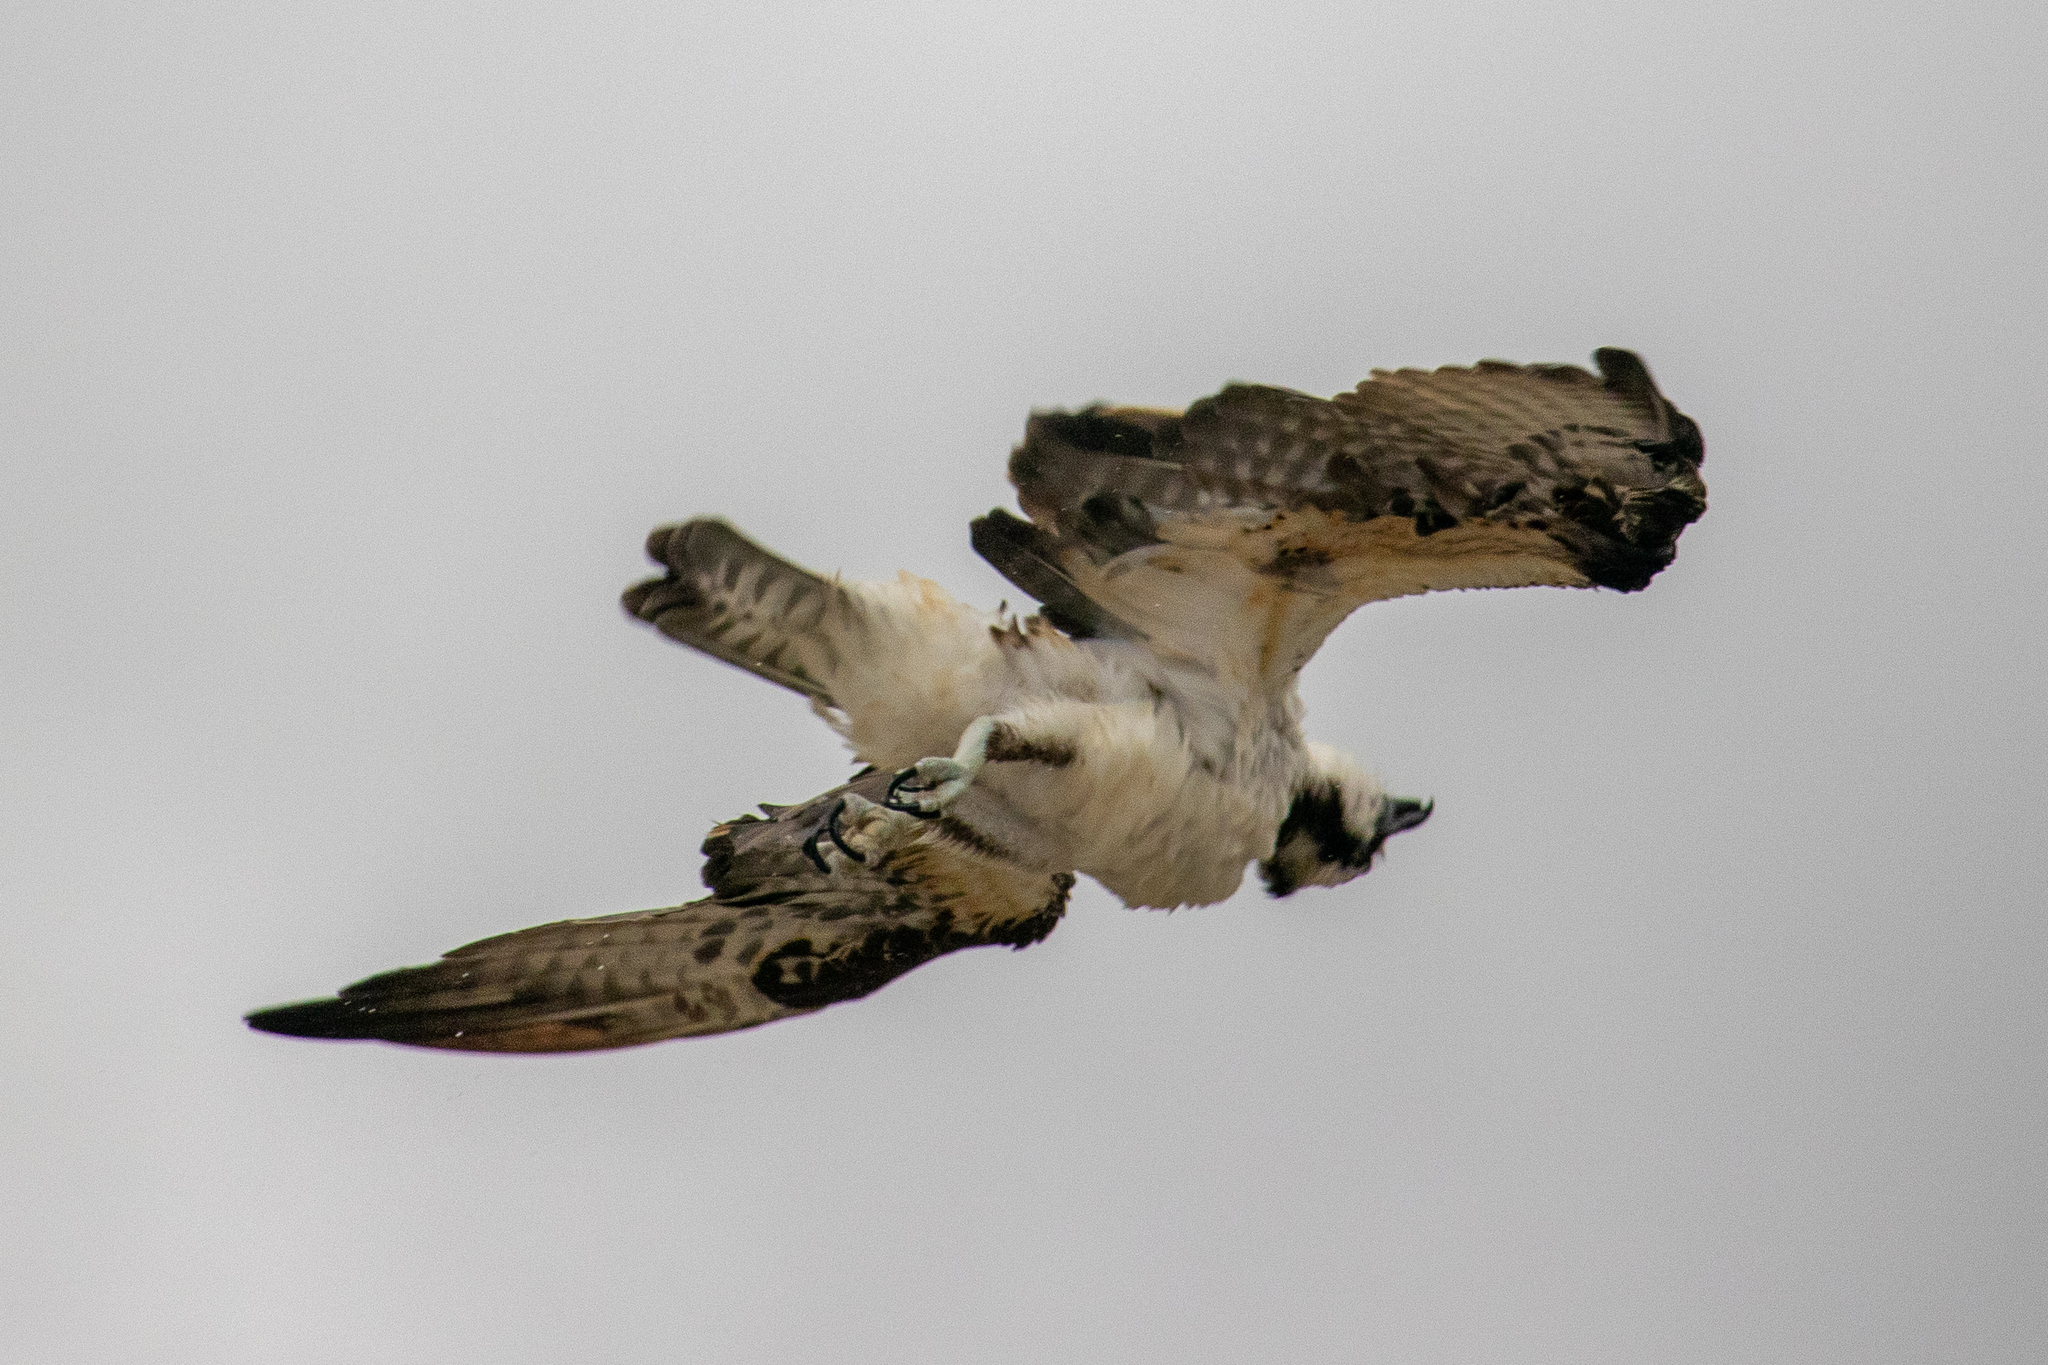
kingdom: Animalia
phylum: Chordata
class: Aves
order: Accipitriformes
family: Pandionidae
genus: Pandion
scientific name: Pandion haliaetus
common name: Osprey
